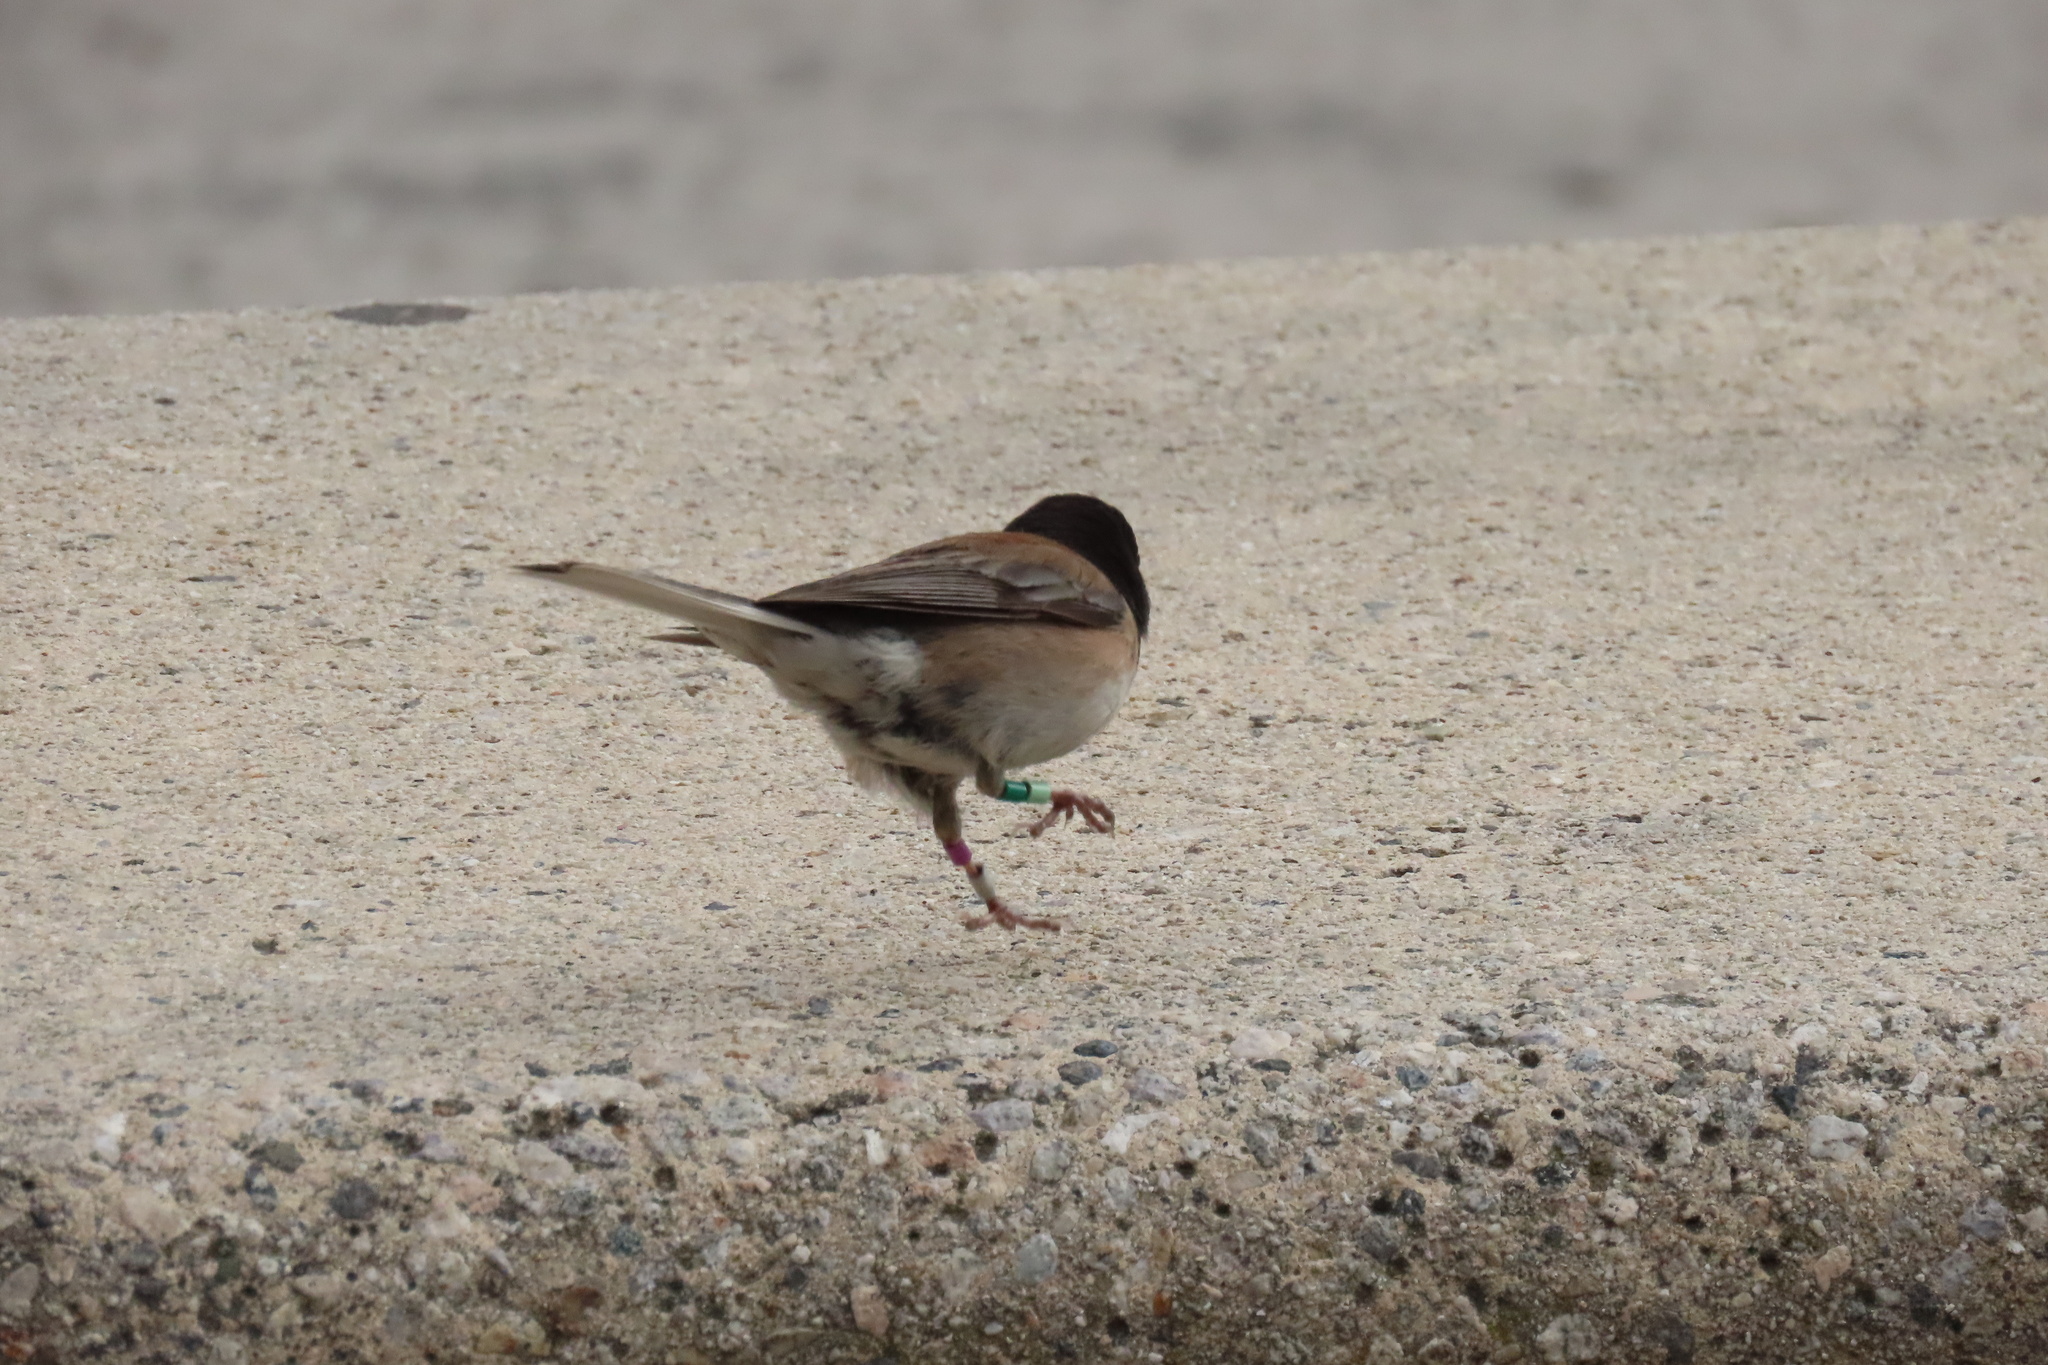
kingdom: Animalia
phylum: Chordata
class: Aves
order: Passeriformes
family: Passerellidae
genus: Junco
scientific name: Junco hyemalis
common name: Dark-eyed junco
